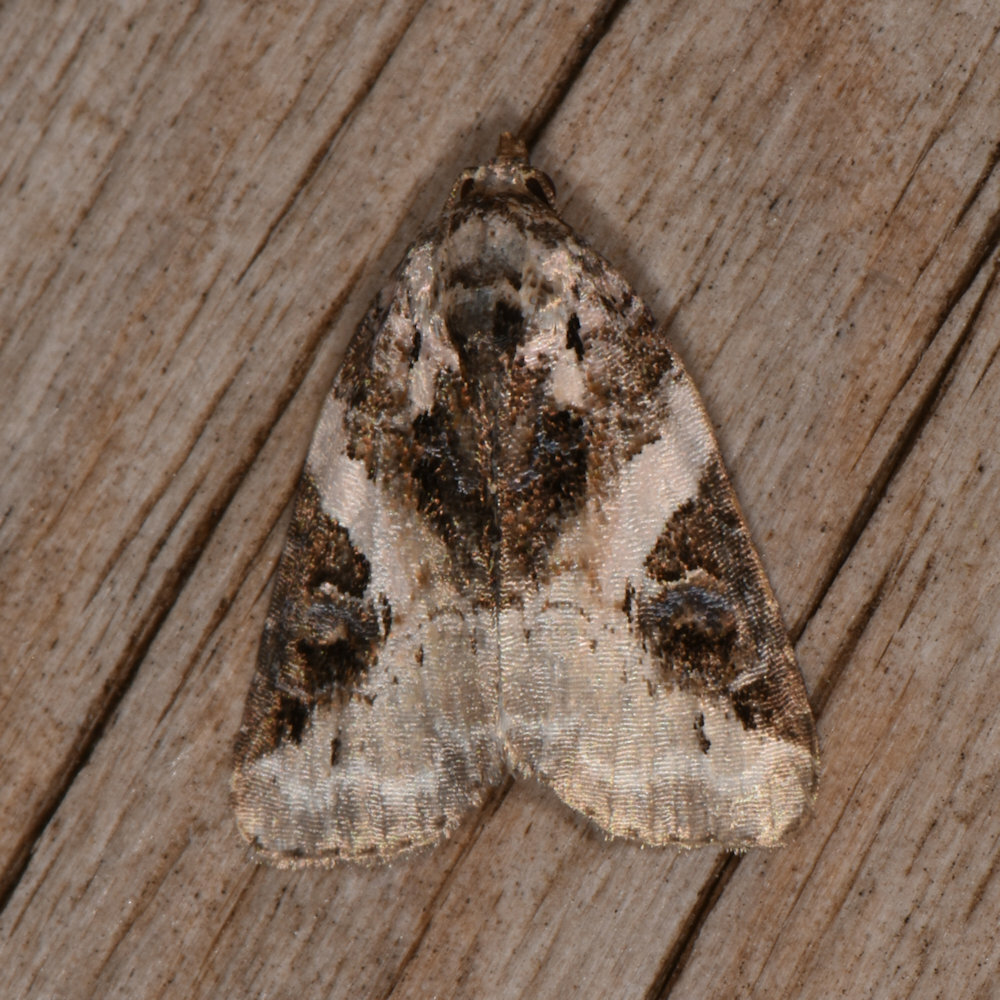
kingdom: Animalia
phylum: Arthropoda
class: Insecta
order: Lepidoptera
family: Noctuidae
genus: Pseudeustrotia
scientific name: Pseudeustrotia carneola
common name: Pink-barred lithacodia moth
